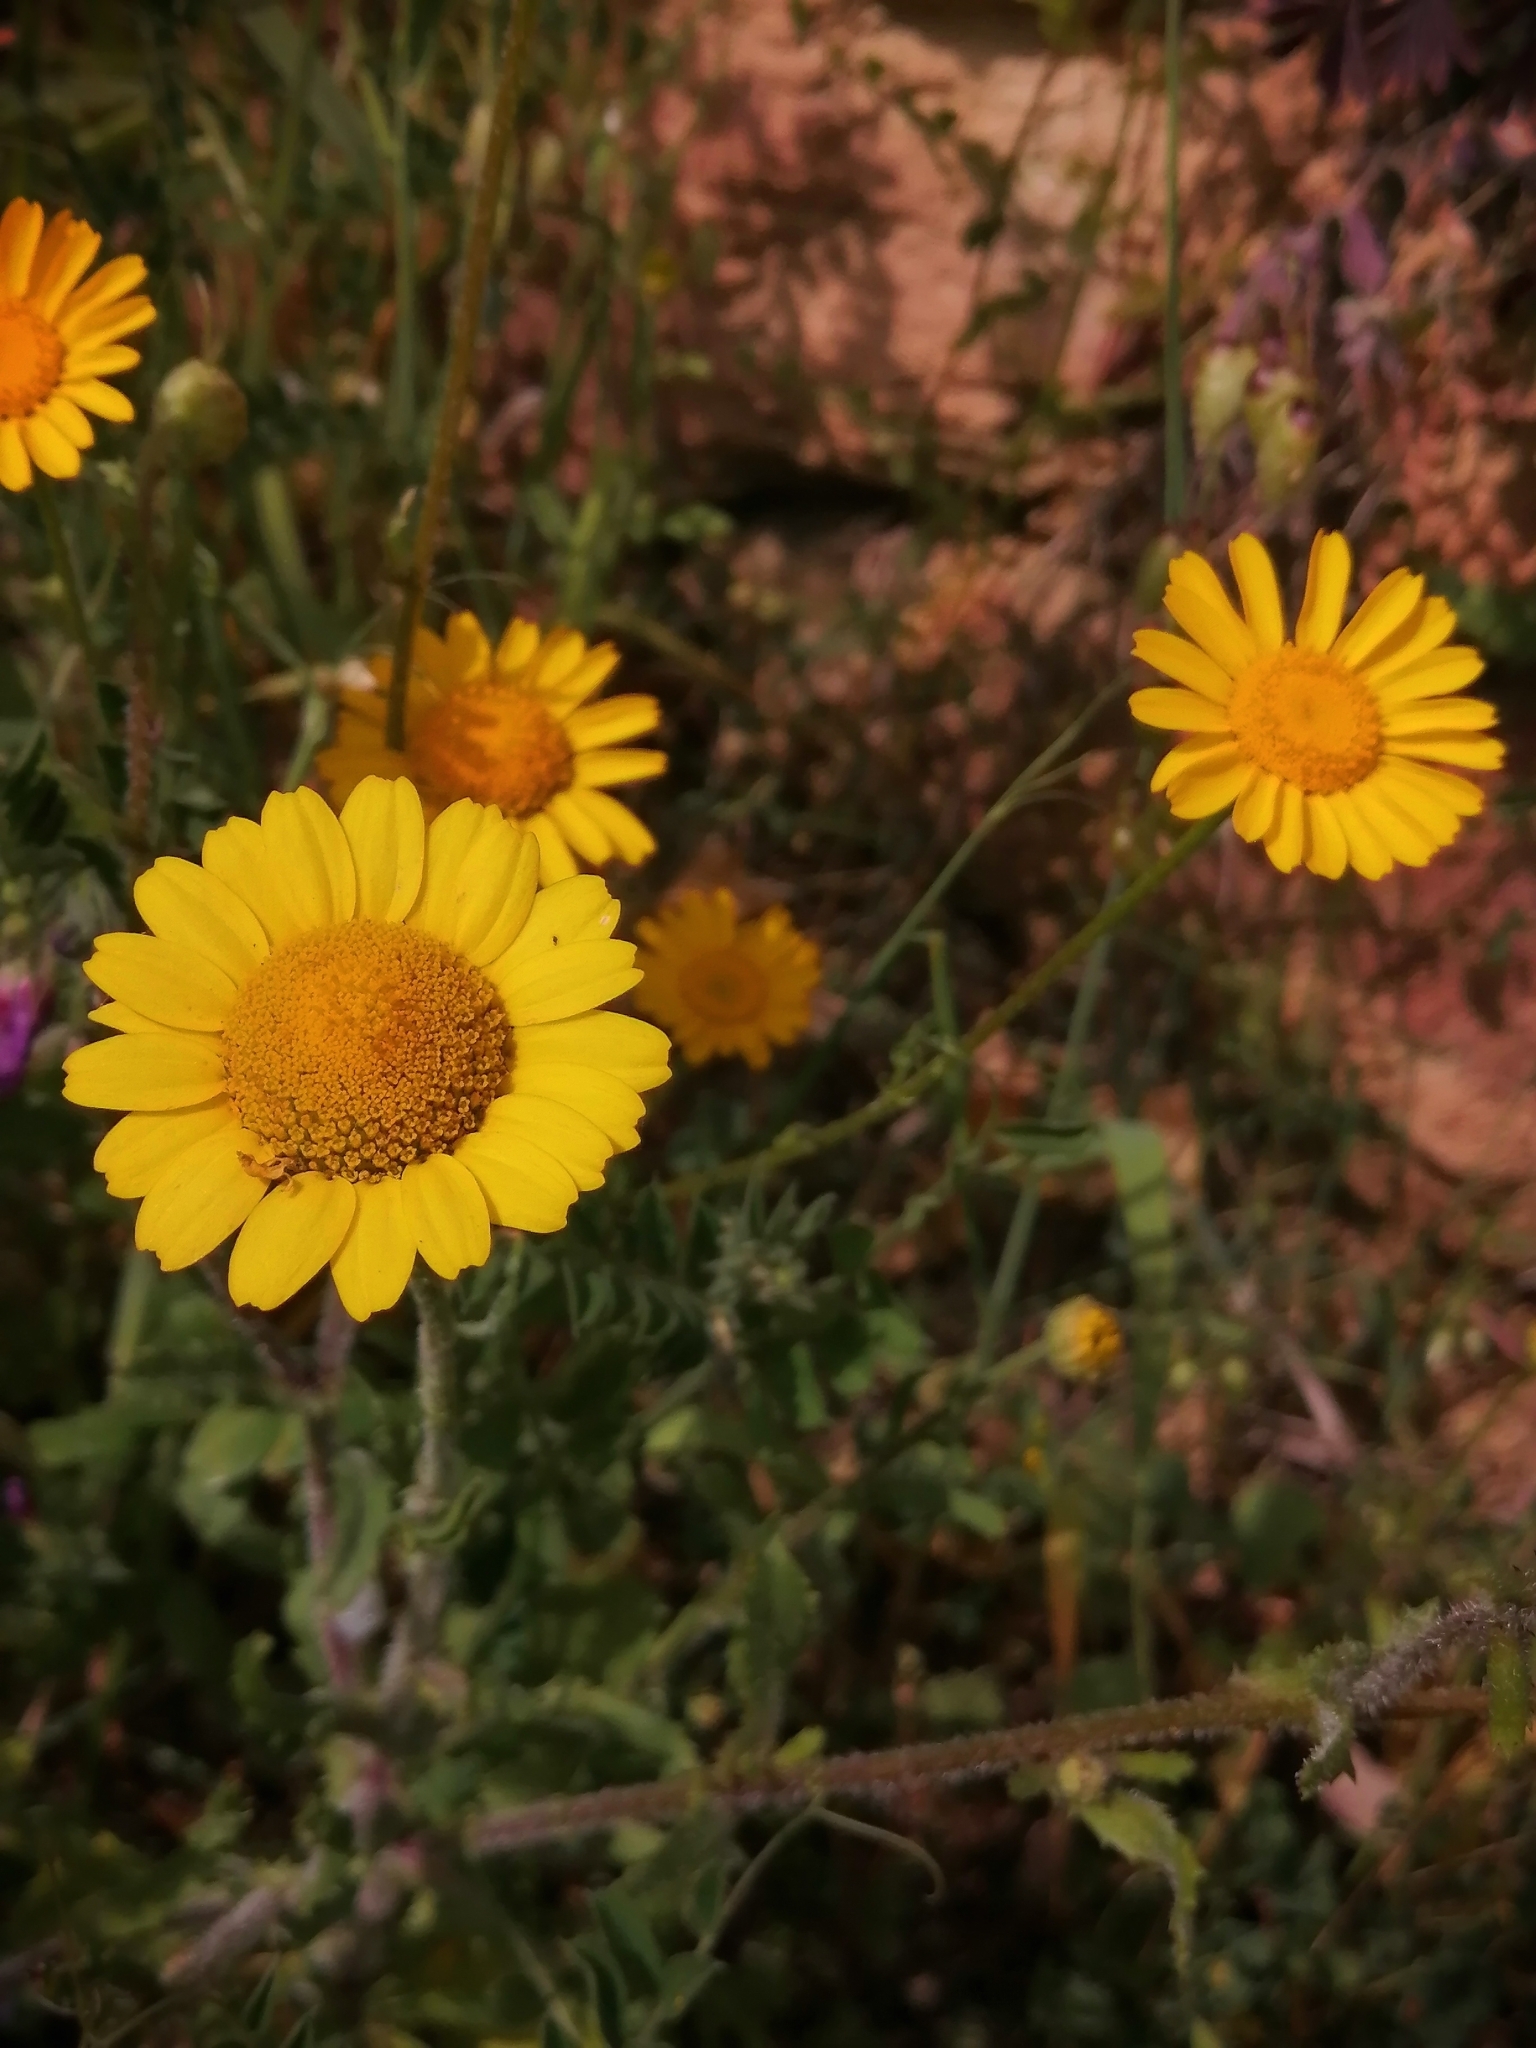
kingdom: Plantae
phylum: Tracheophyta
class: Magnoliopsida
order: Asterales
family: Asteraceae
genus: Cota
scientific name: Cota tinctoria
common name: Golden chamomile
